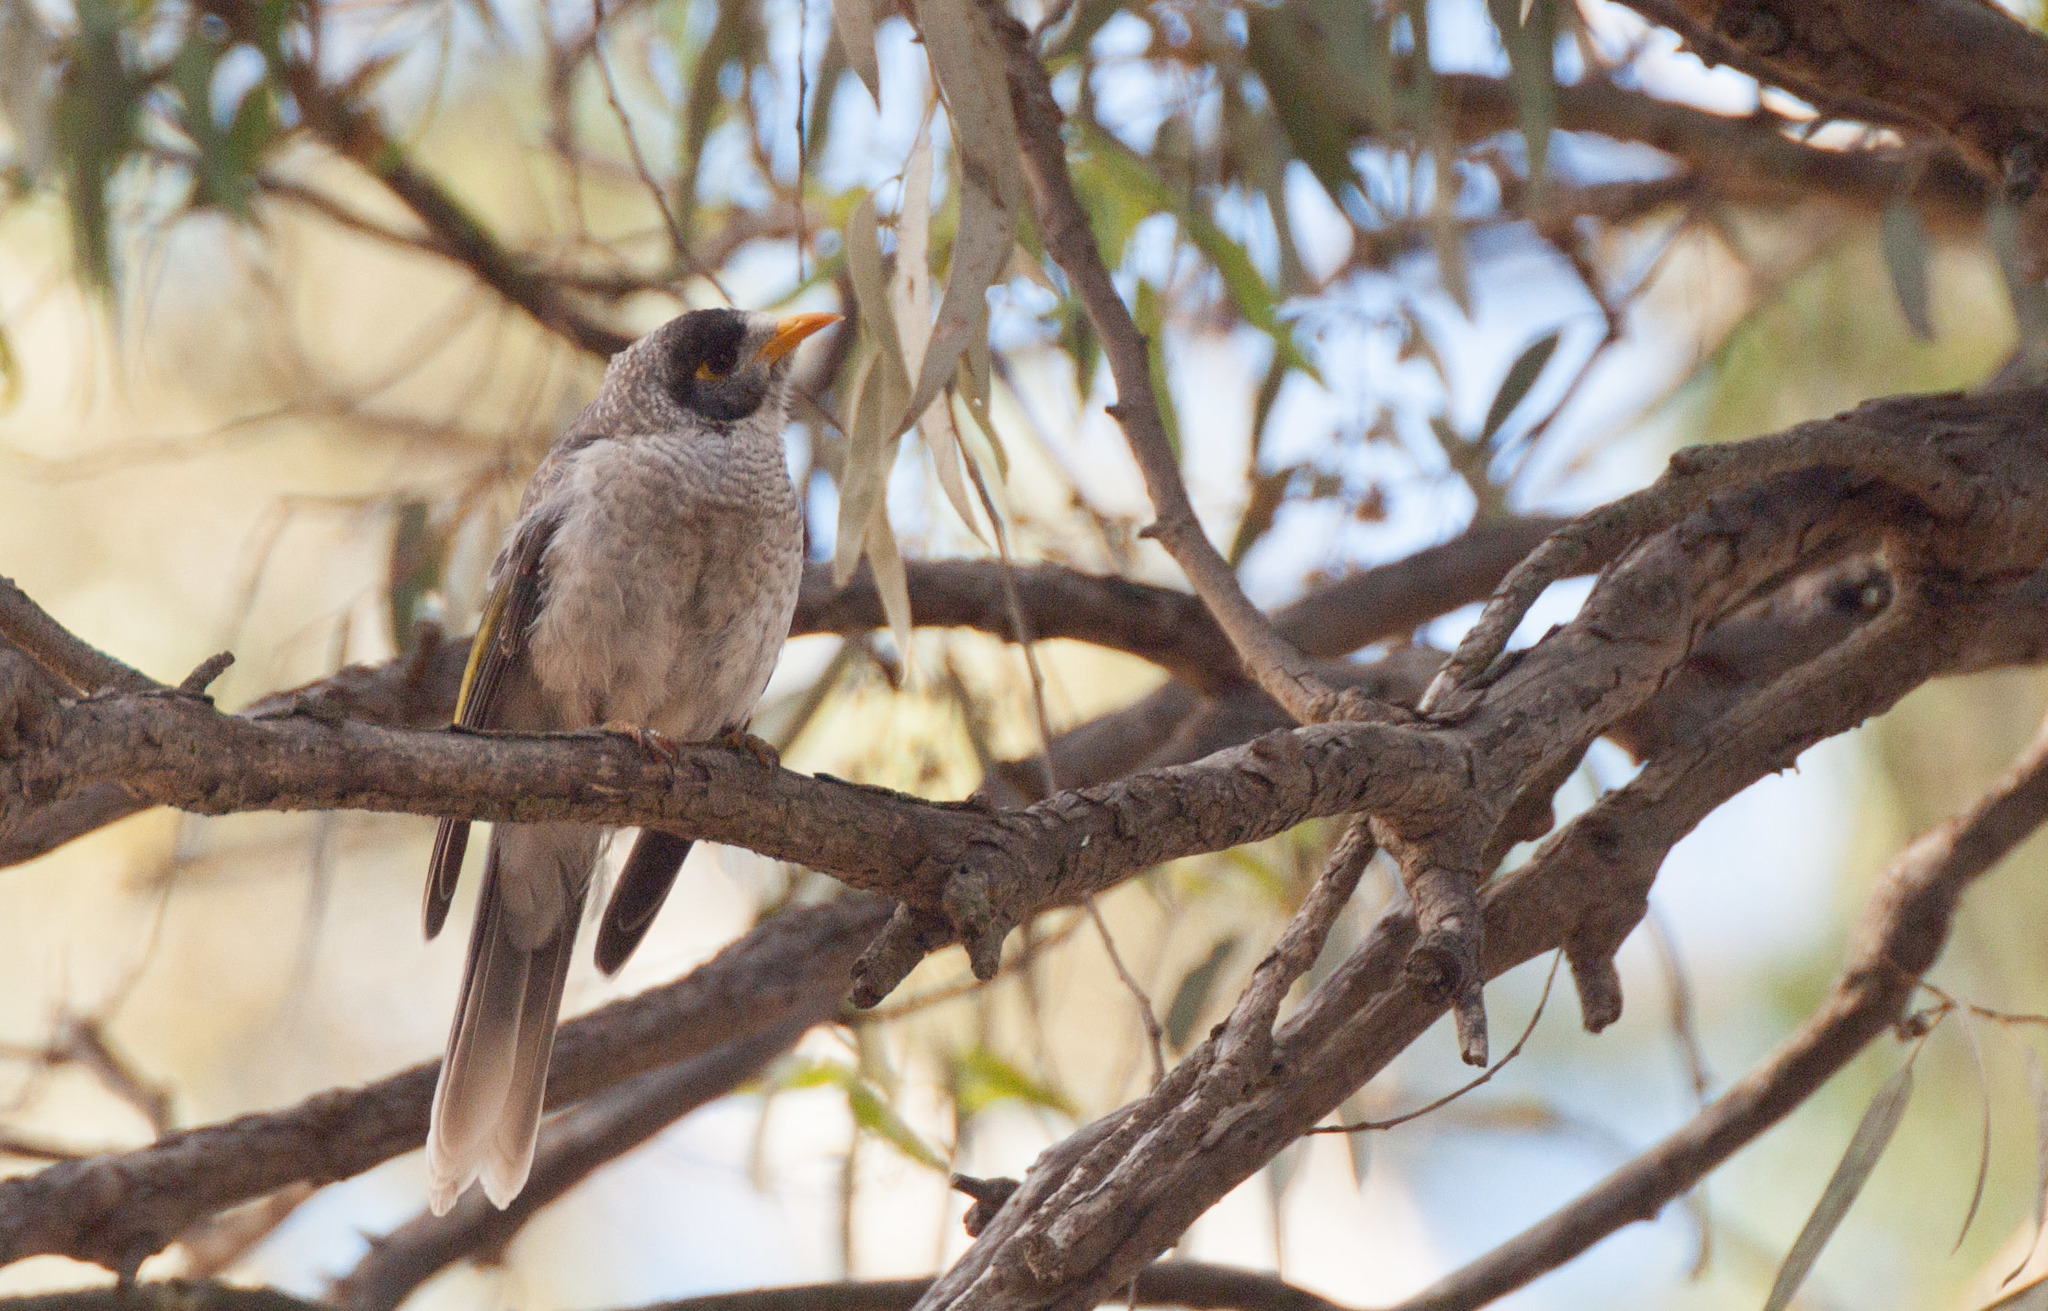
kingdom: Animalia
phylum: Chordata
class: Aves
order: Passeriformes
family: Meliphagidae
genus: Manorina
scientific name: Manorina melanocephala
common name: Noisy miner
